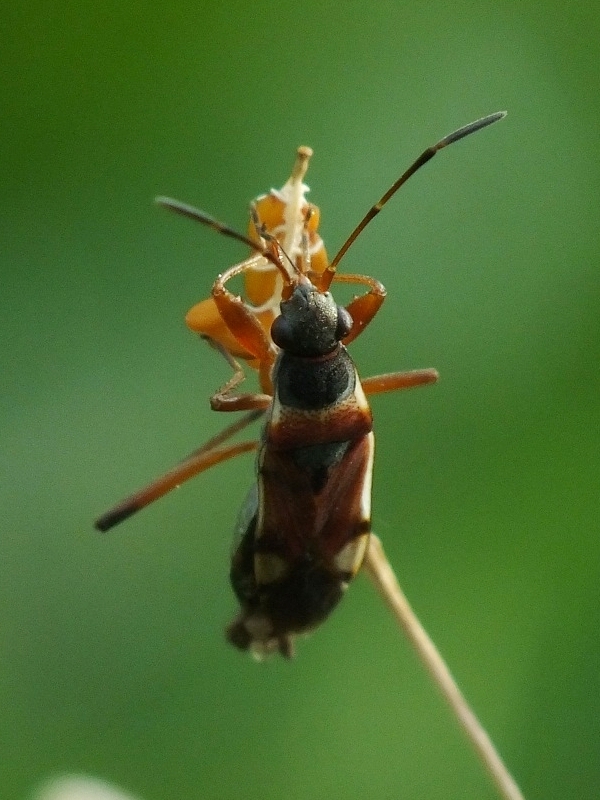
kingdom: Animalia
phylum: Arthropoda
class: Insecta
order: Hemiptera
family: Rhyparochromidae
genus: Beosus
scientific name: Beosus quadripunctatus
